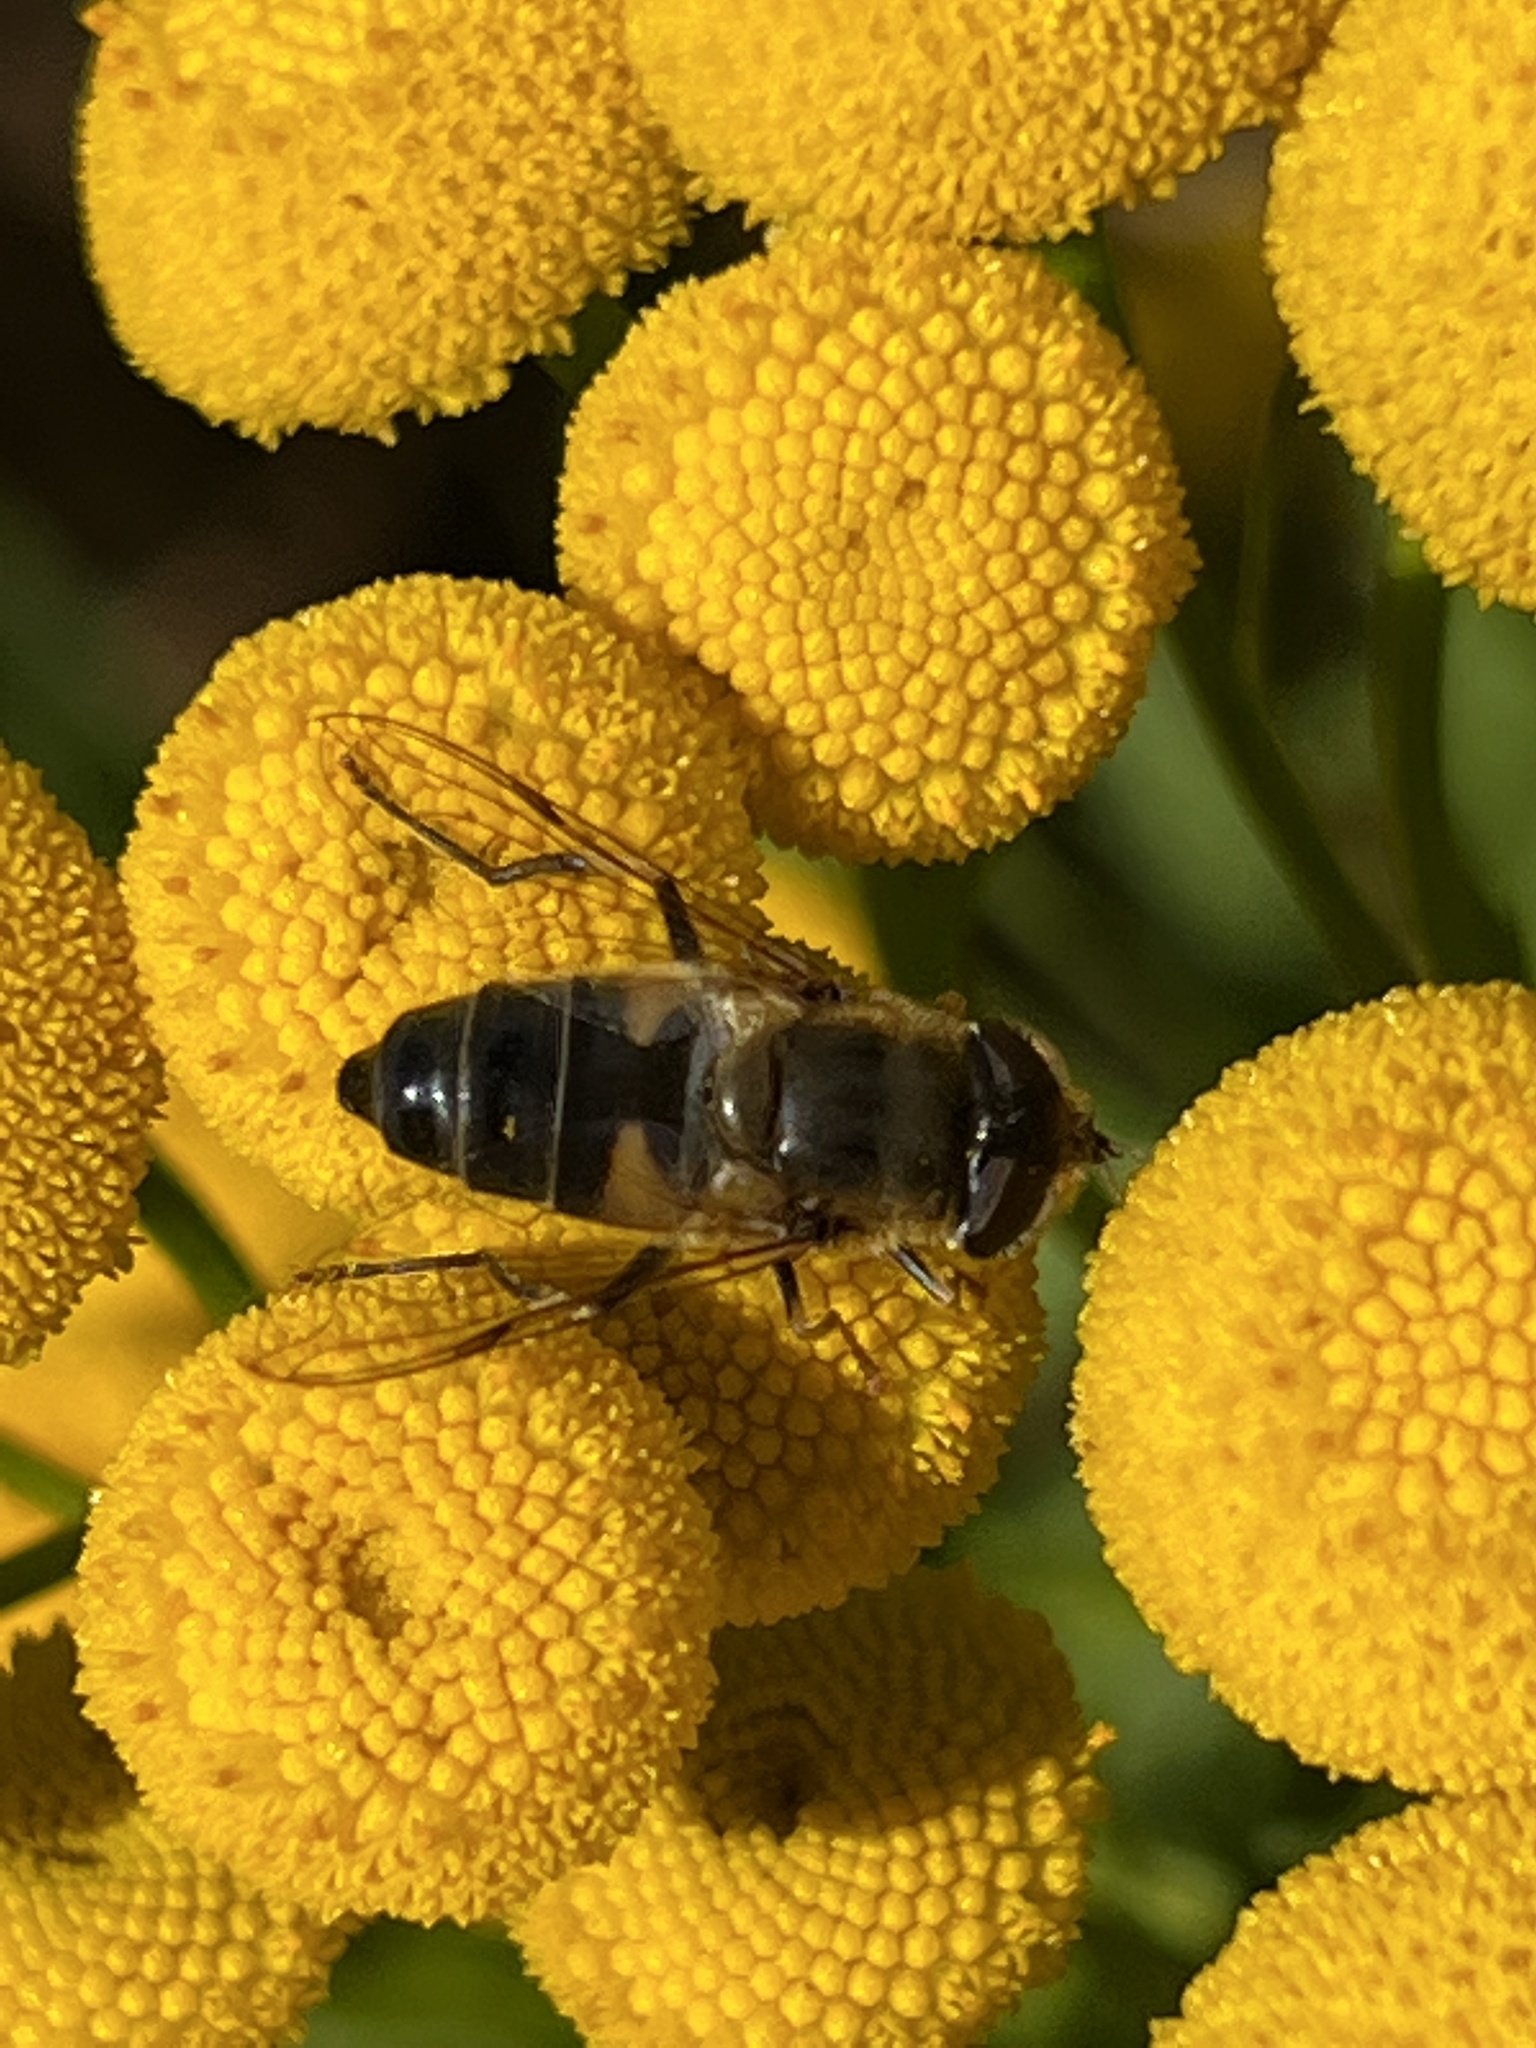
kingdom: Animalia
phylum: Arthropoda
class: Insecta
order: Diptera
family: Syrphidae
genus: Eristalis
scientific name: Eristalis pertinax
